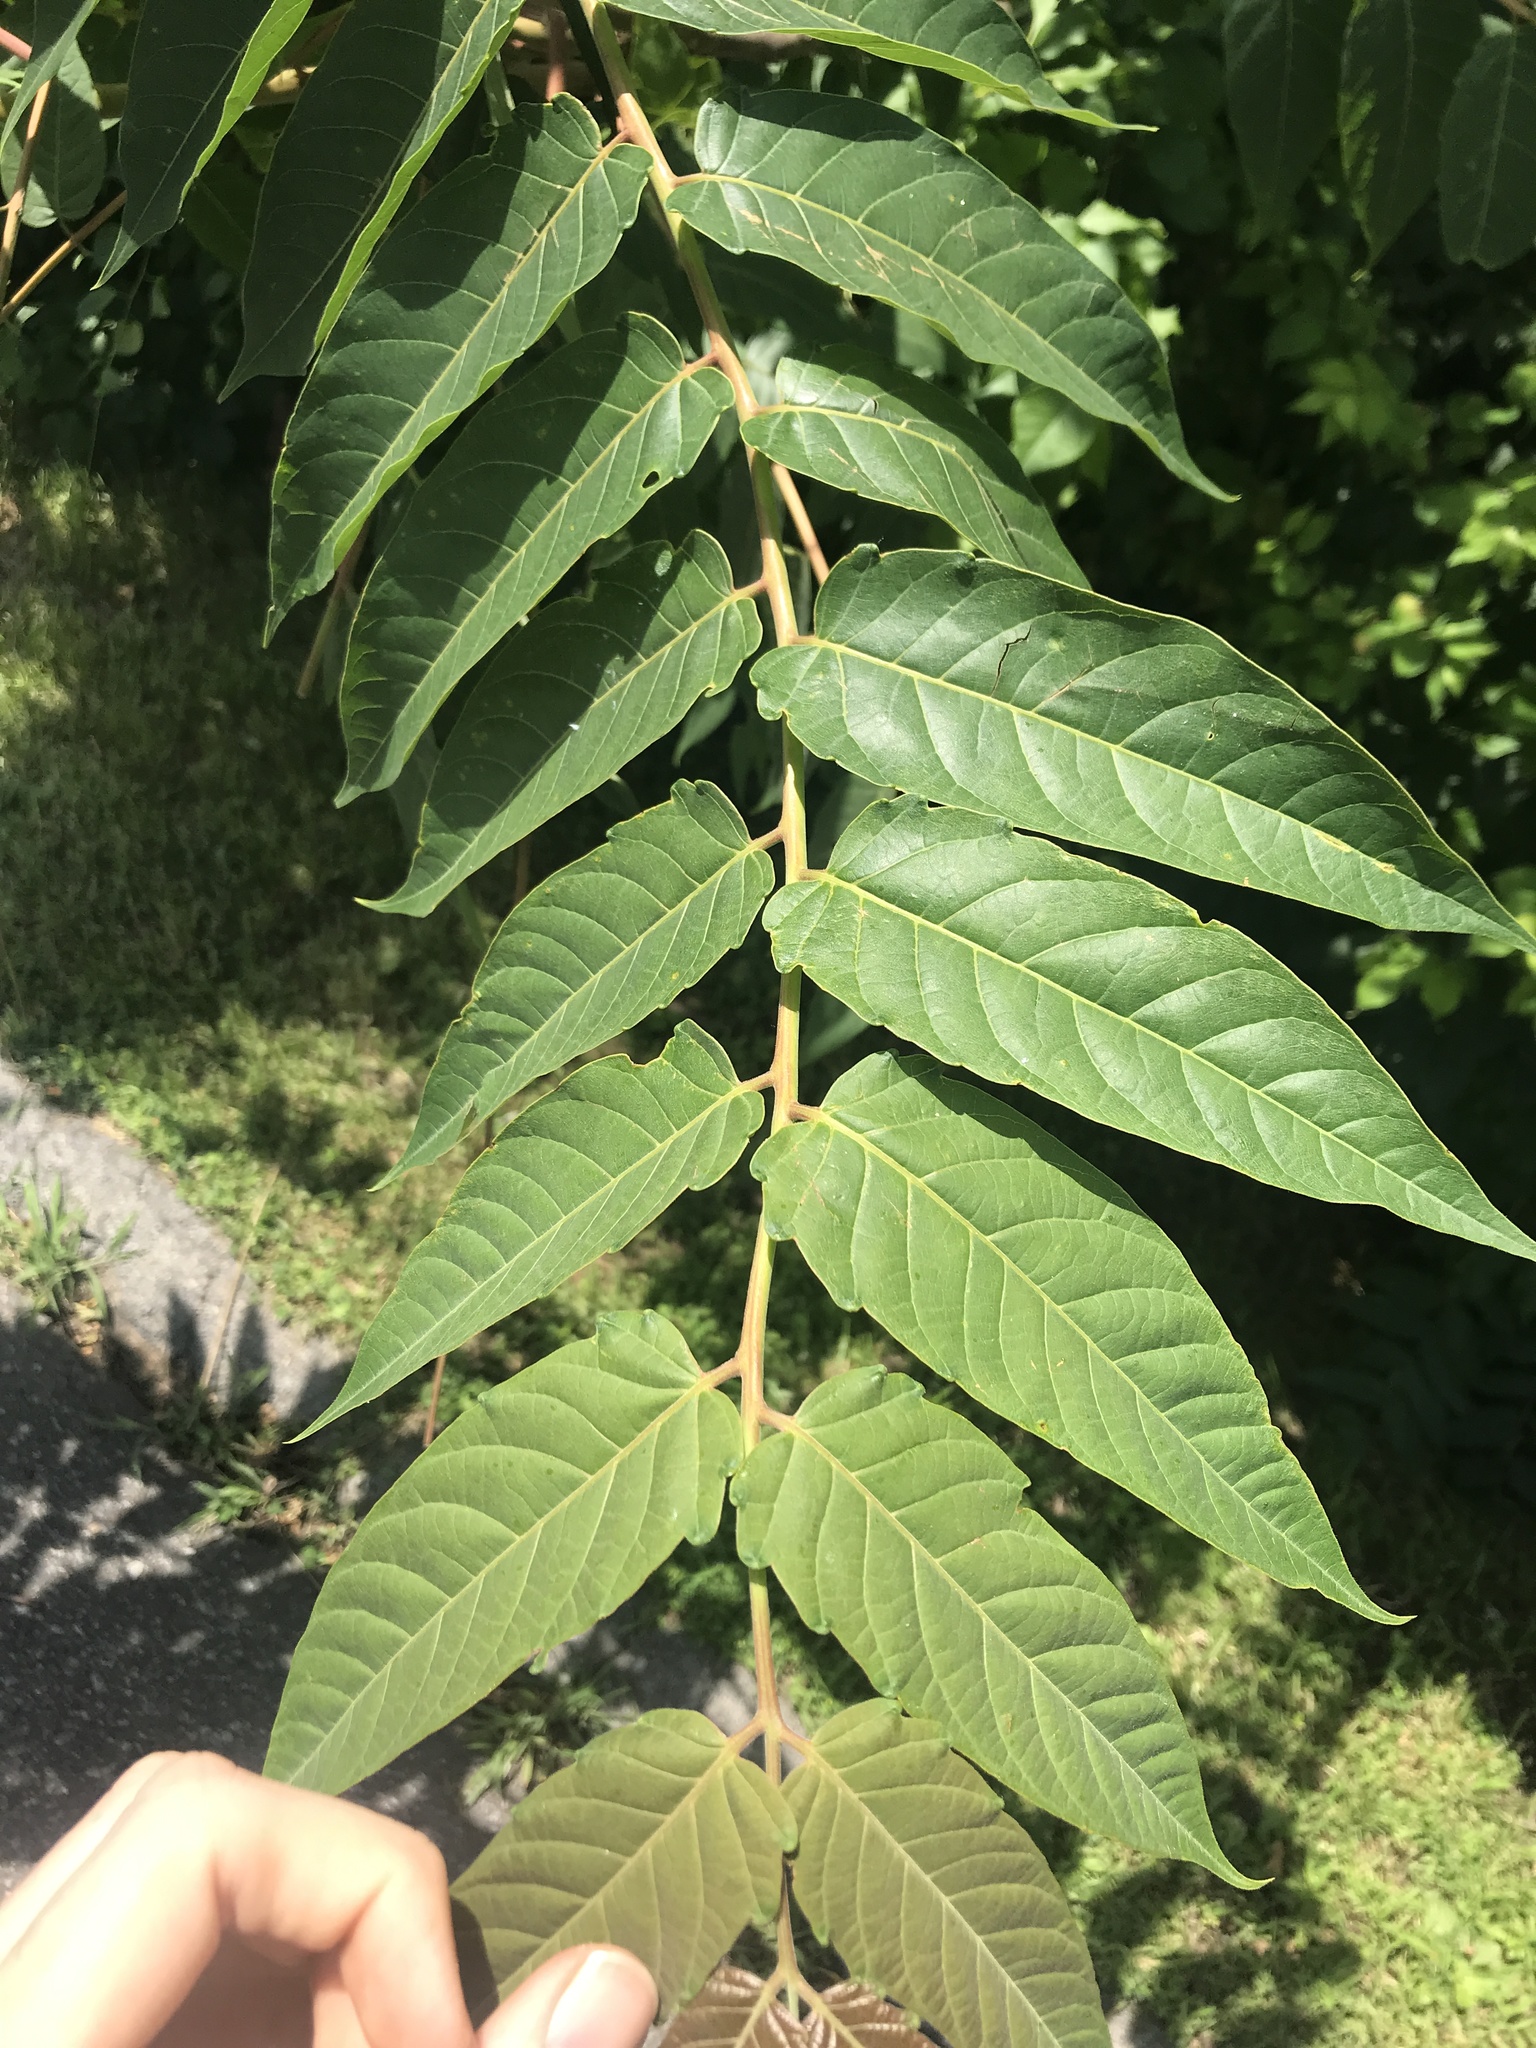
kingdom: Plantae
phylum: Tracheophyta
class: Magnoliopsida
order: Sapindales
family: Simaroubaceae
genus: Ailanthus
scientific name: Ailanthus altissima
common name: Tree-of-heaven
